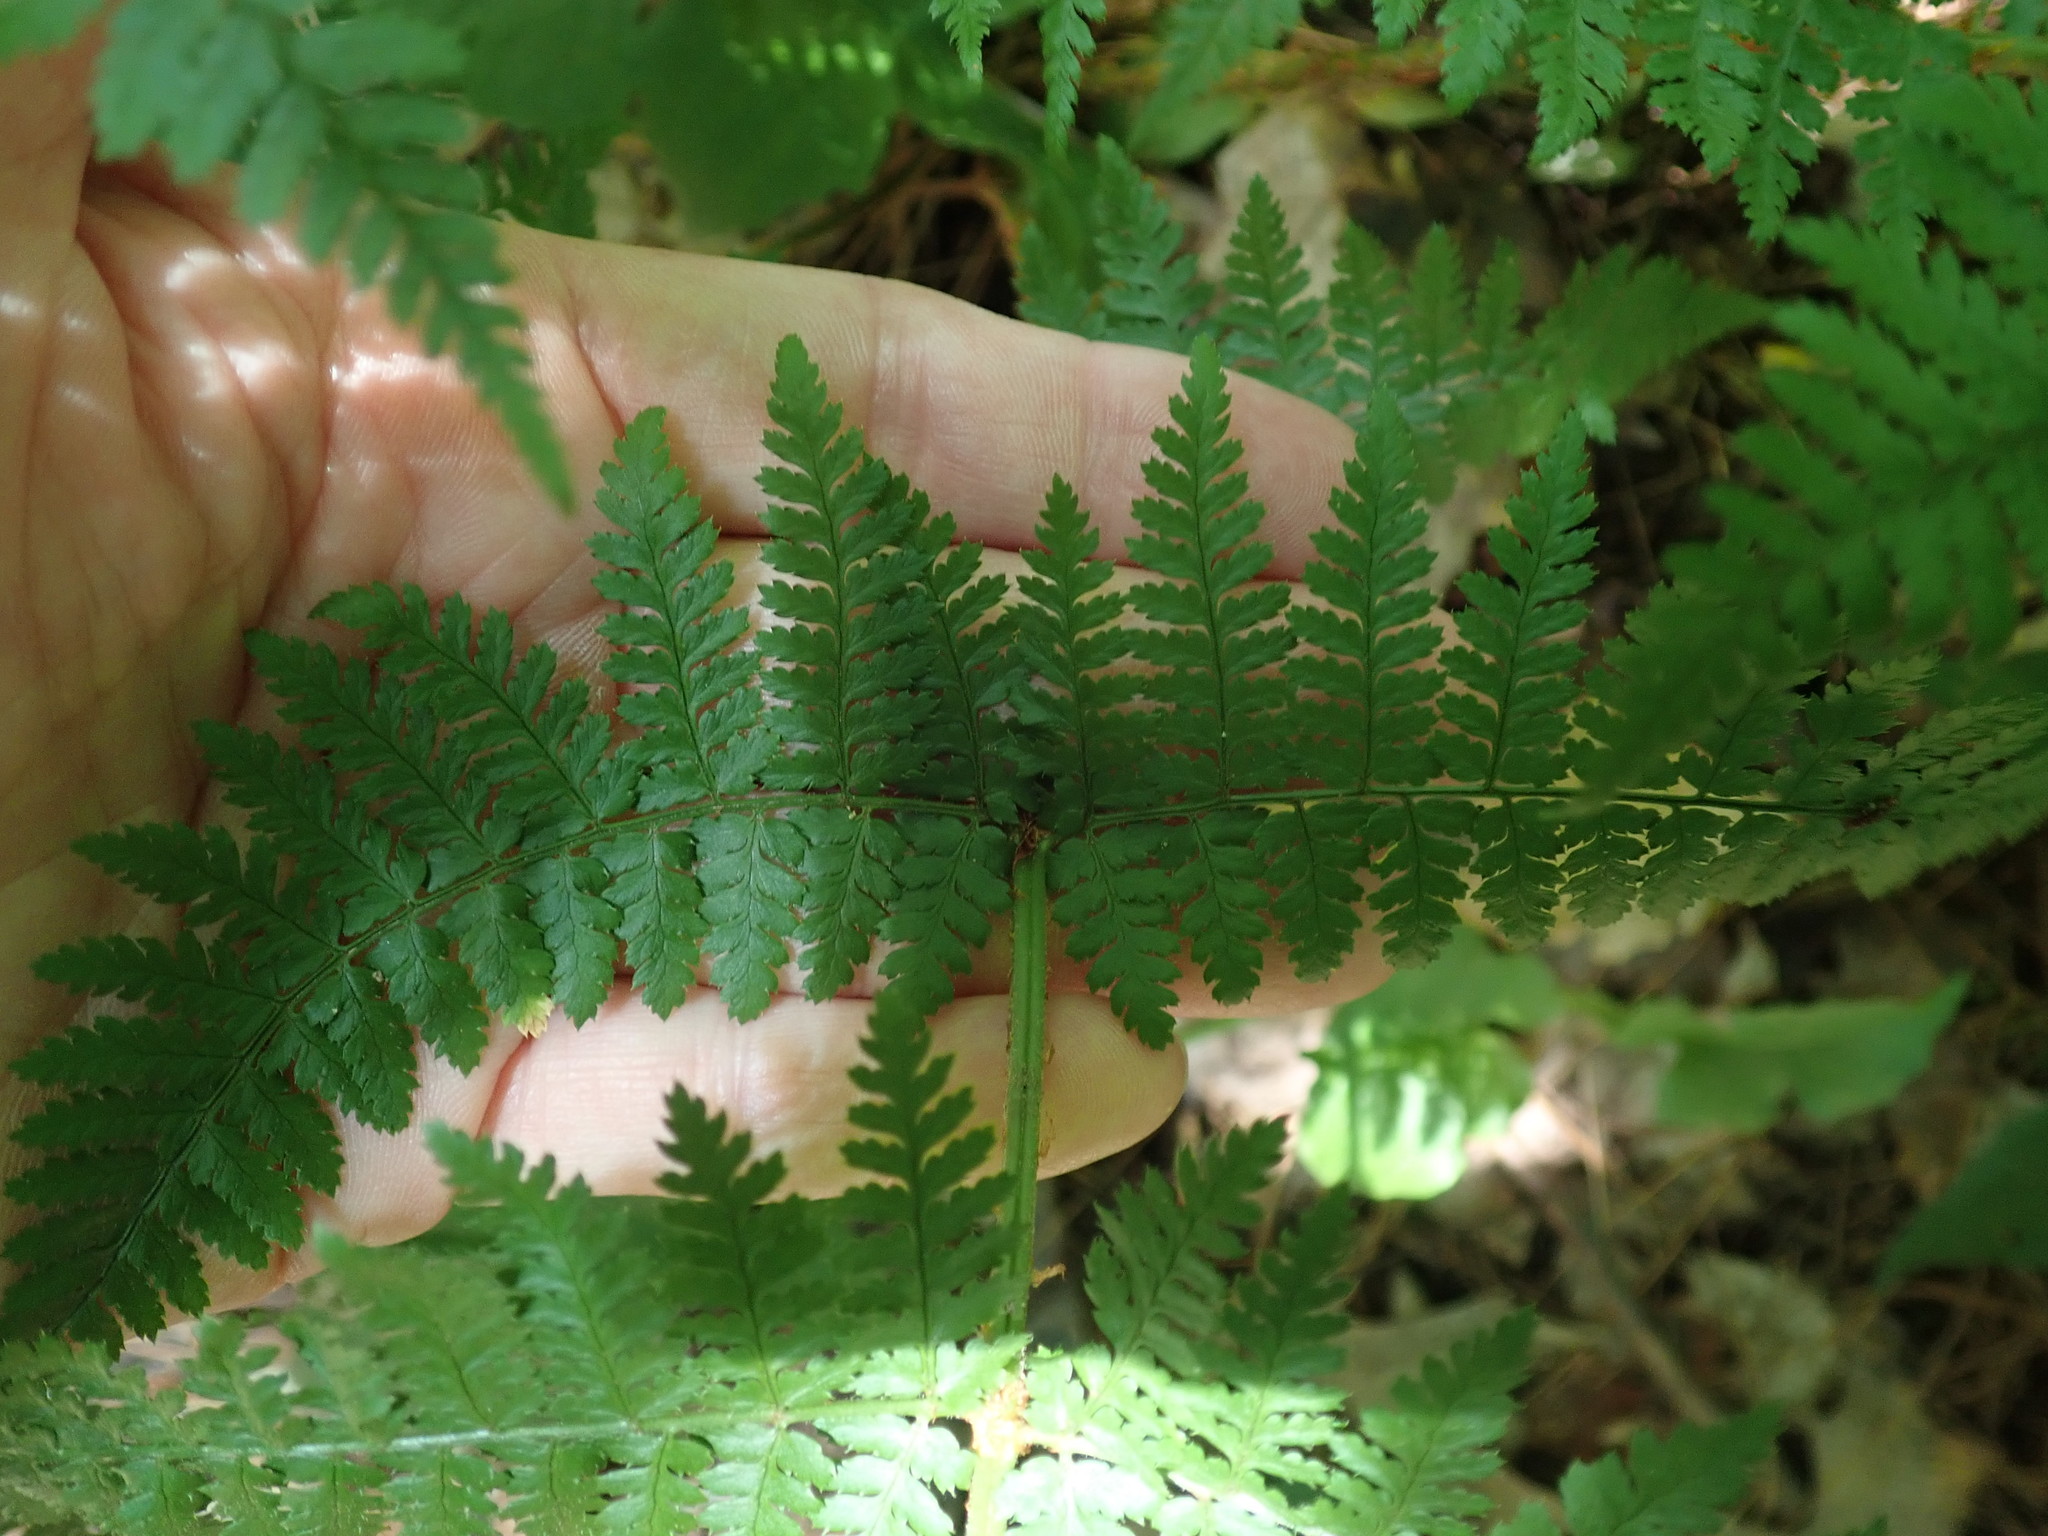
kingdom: Plantae
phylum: Tracheophyta
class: Polypodiopsida
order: Polypodiales
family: Dryopteridaceae
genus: Dryopteris
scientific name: Dryopteris intermedia
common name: Evergreen wood fern
